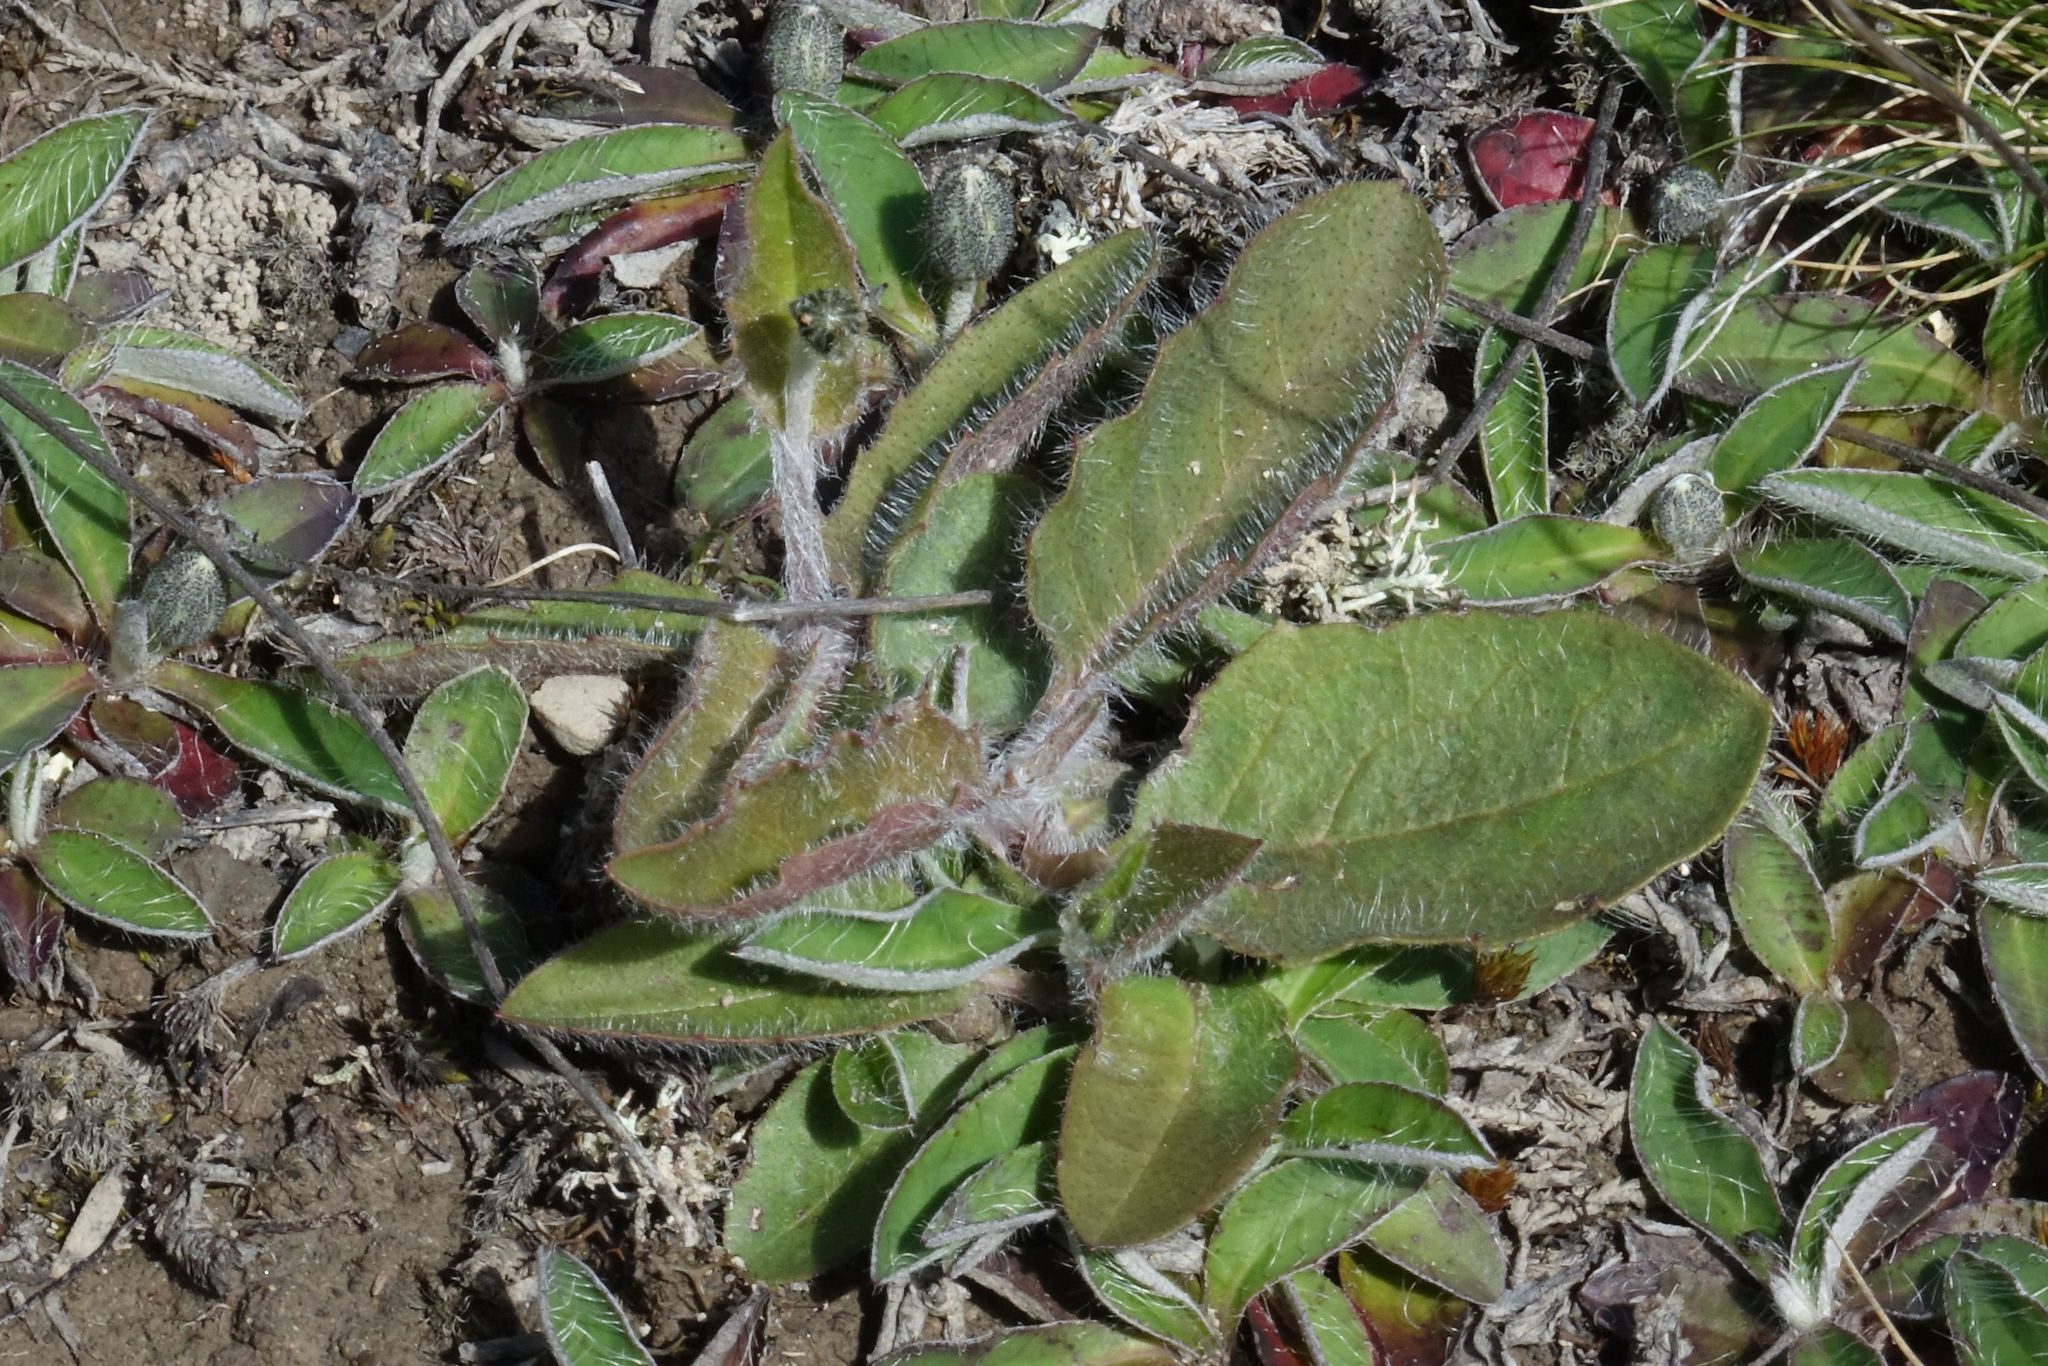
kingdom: Plantae
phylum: Tracheophyta
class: Magnoliopsida
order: Asterales
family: Asteraceae
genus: Hieracium
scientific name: Hieracium lepidulum
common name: Irregular-toothed hawkweed
